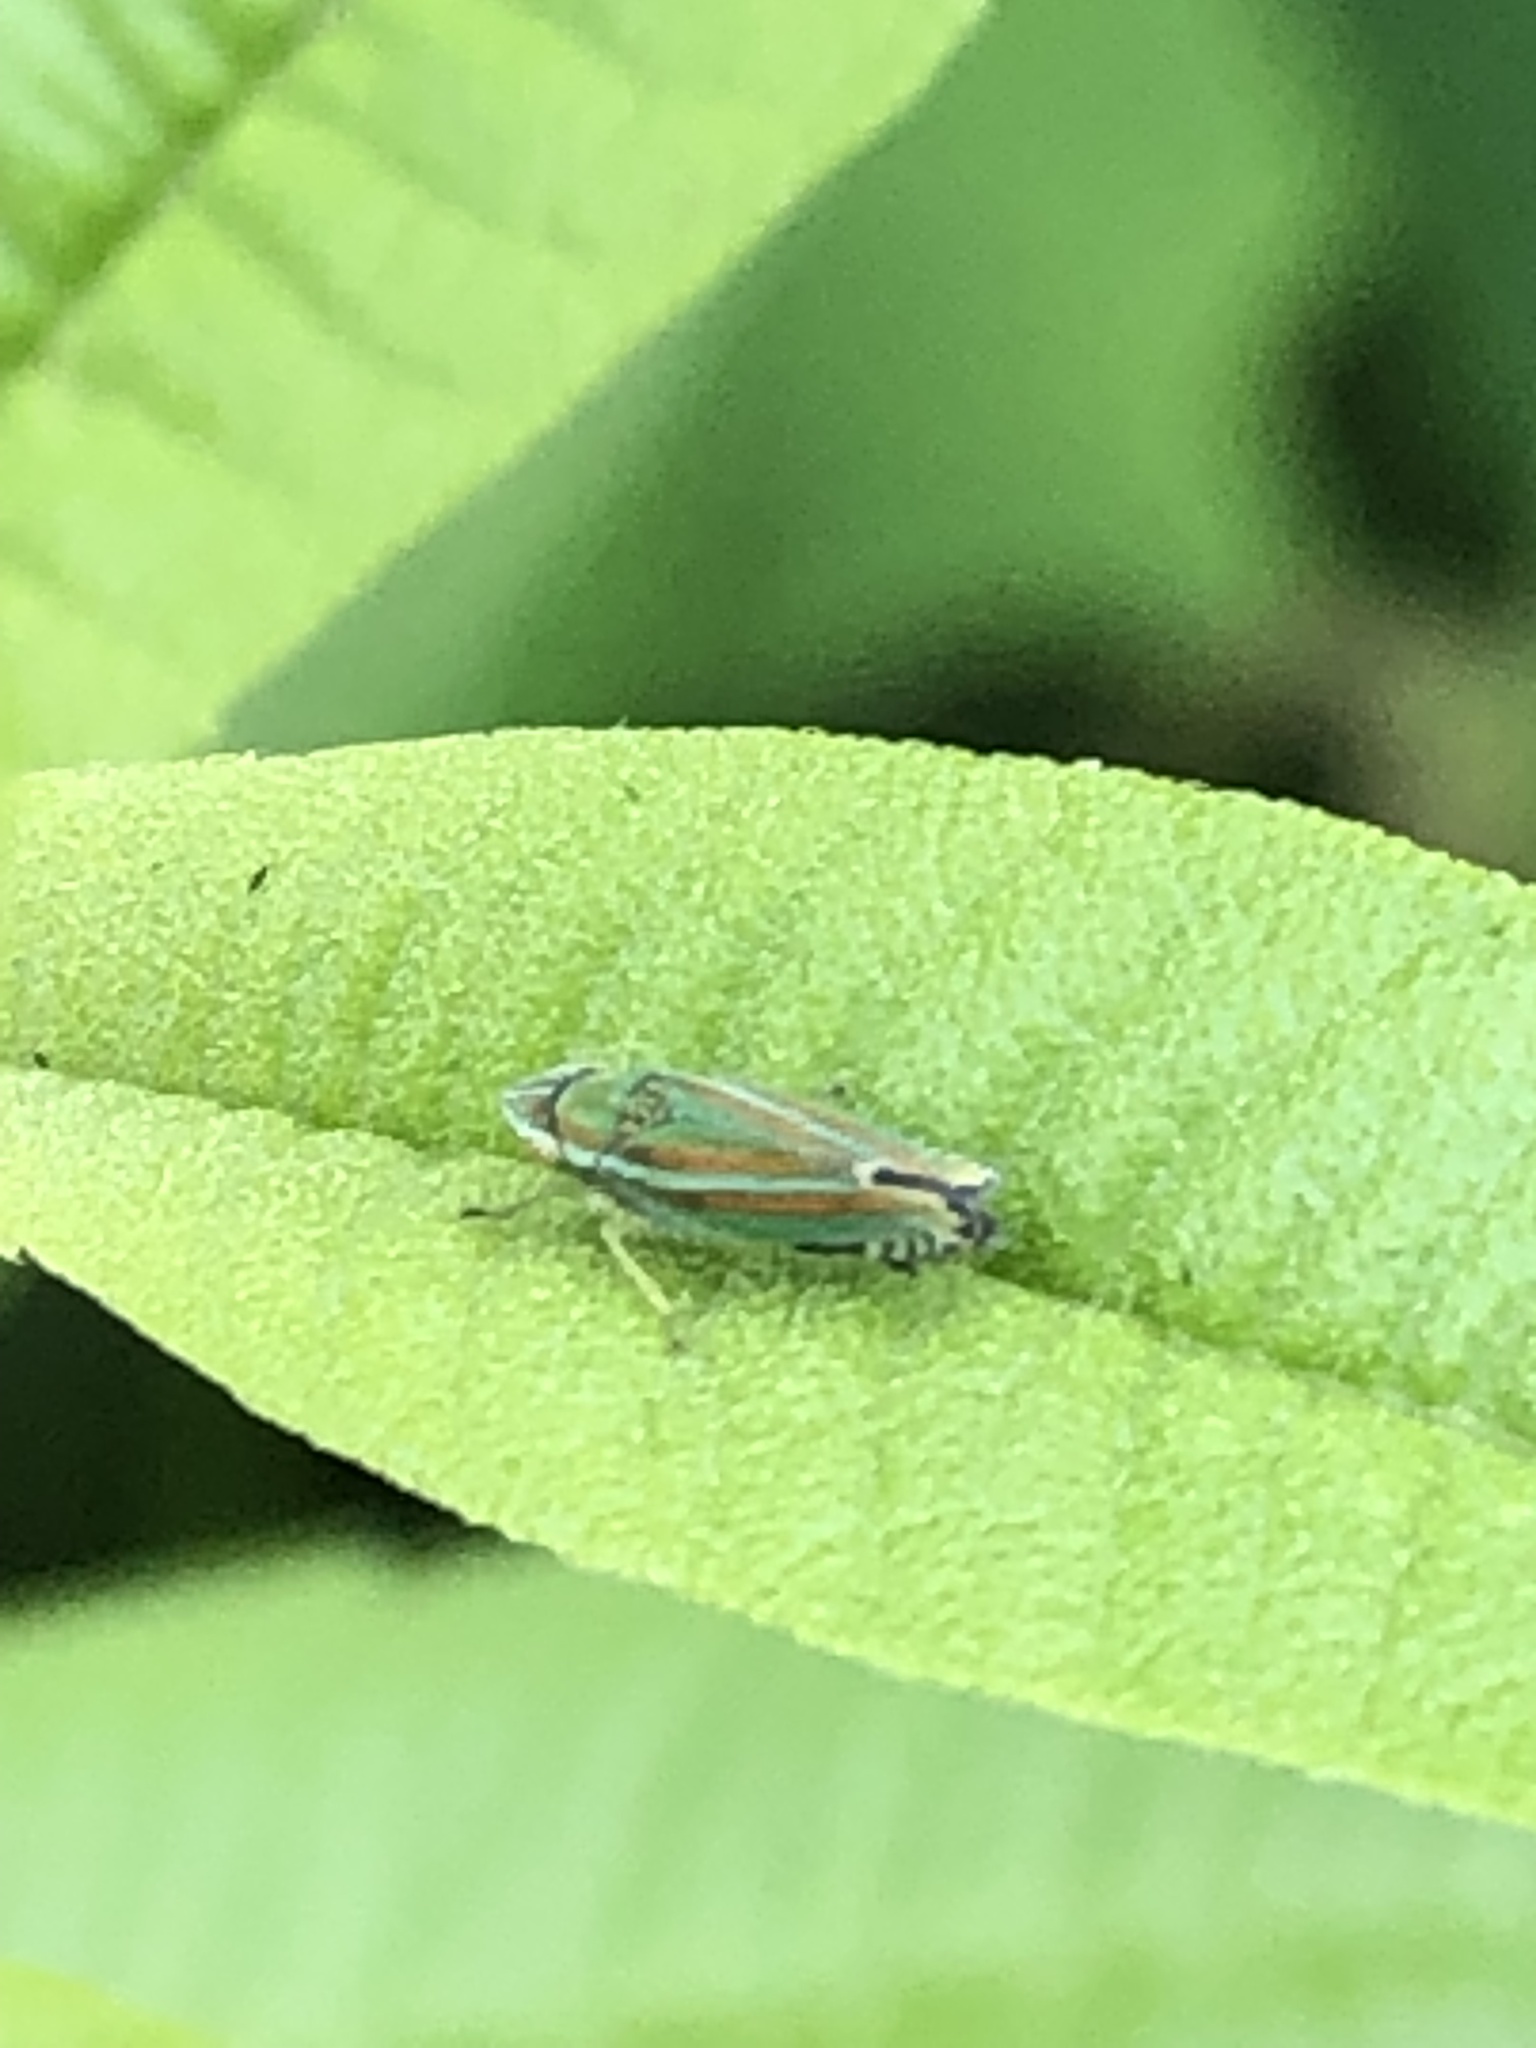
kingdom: Animalia
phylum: Arthropoda
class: Insecta
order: Hemiptera
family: Cicadellidae
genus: Graphocephala
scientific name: Graphocephala versuta
